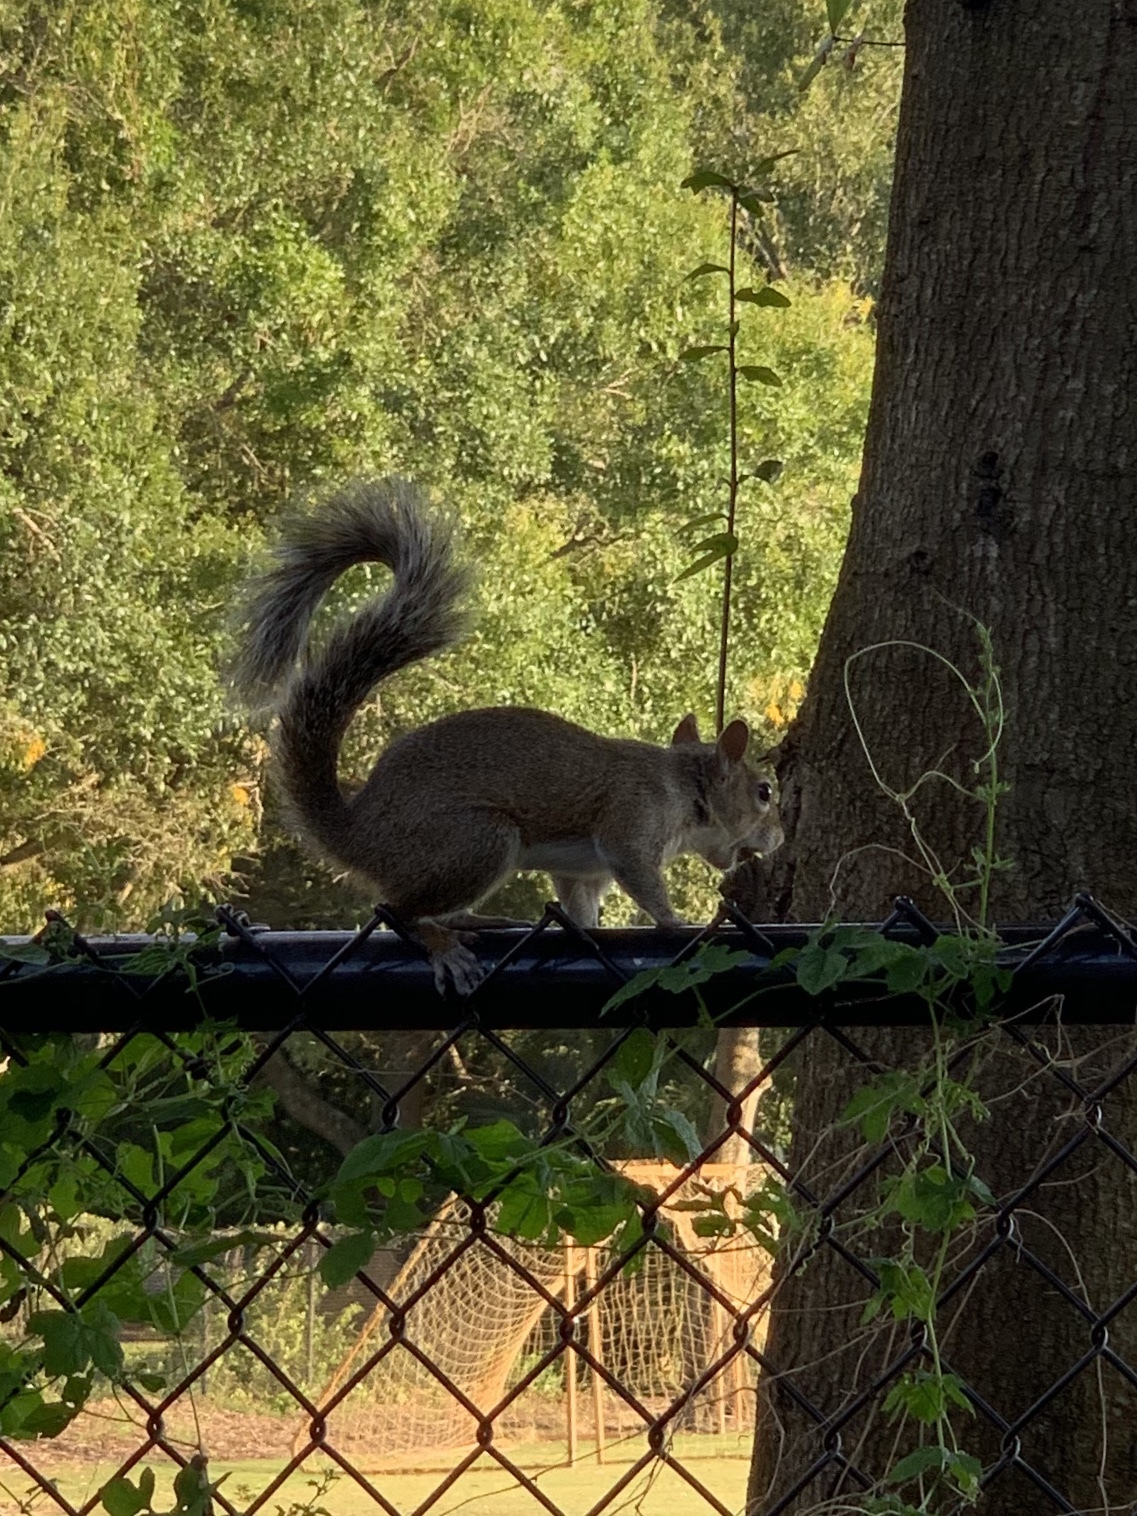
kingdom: Animalia
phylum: Chordata
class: Mammalia
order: Rodentia
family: Sciuridae
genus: Sciurus
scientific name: Sciurus carolinensis
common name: Eastern gray squirrel
